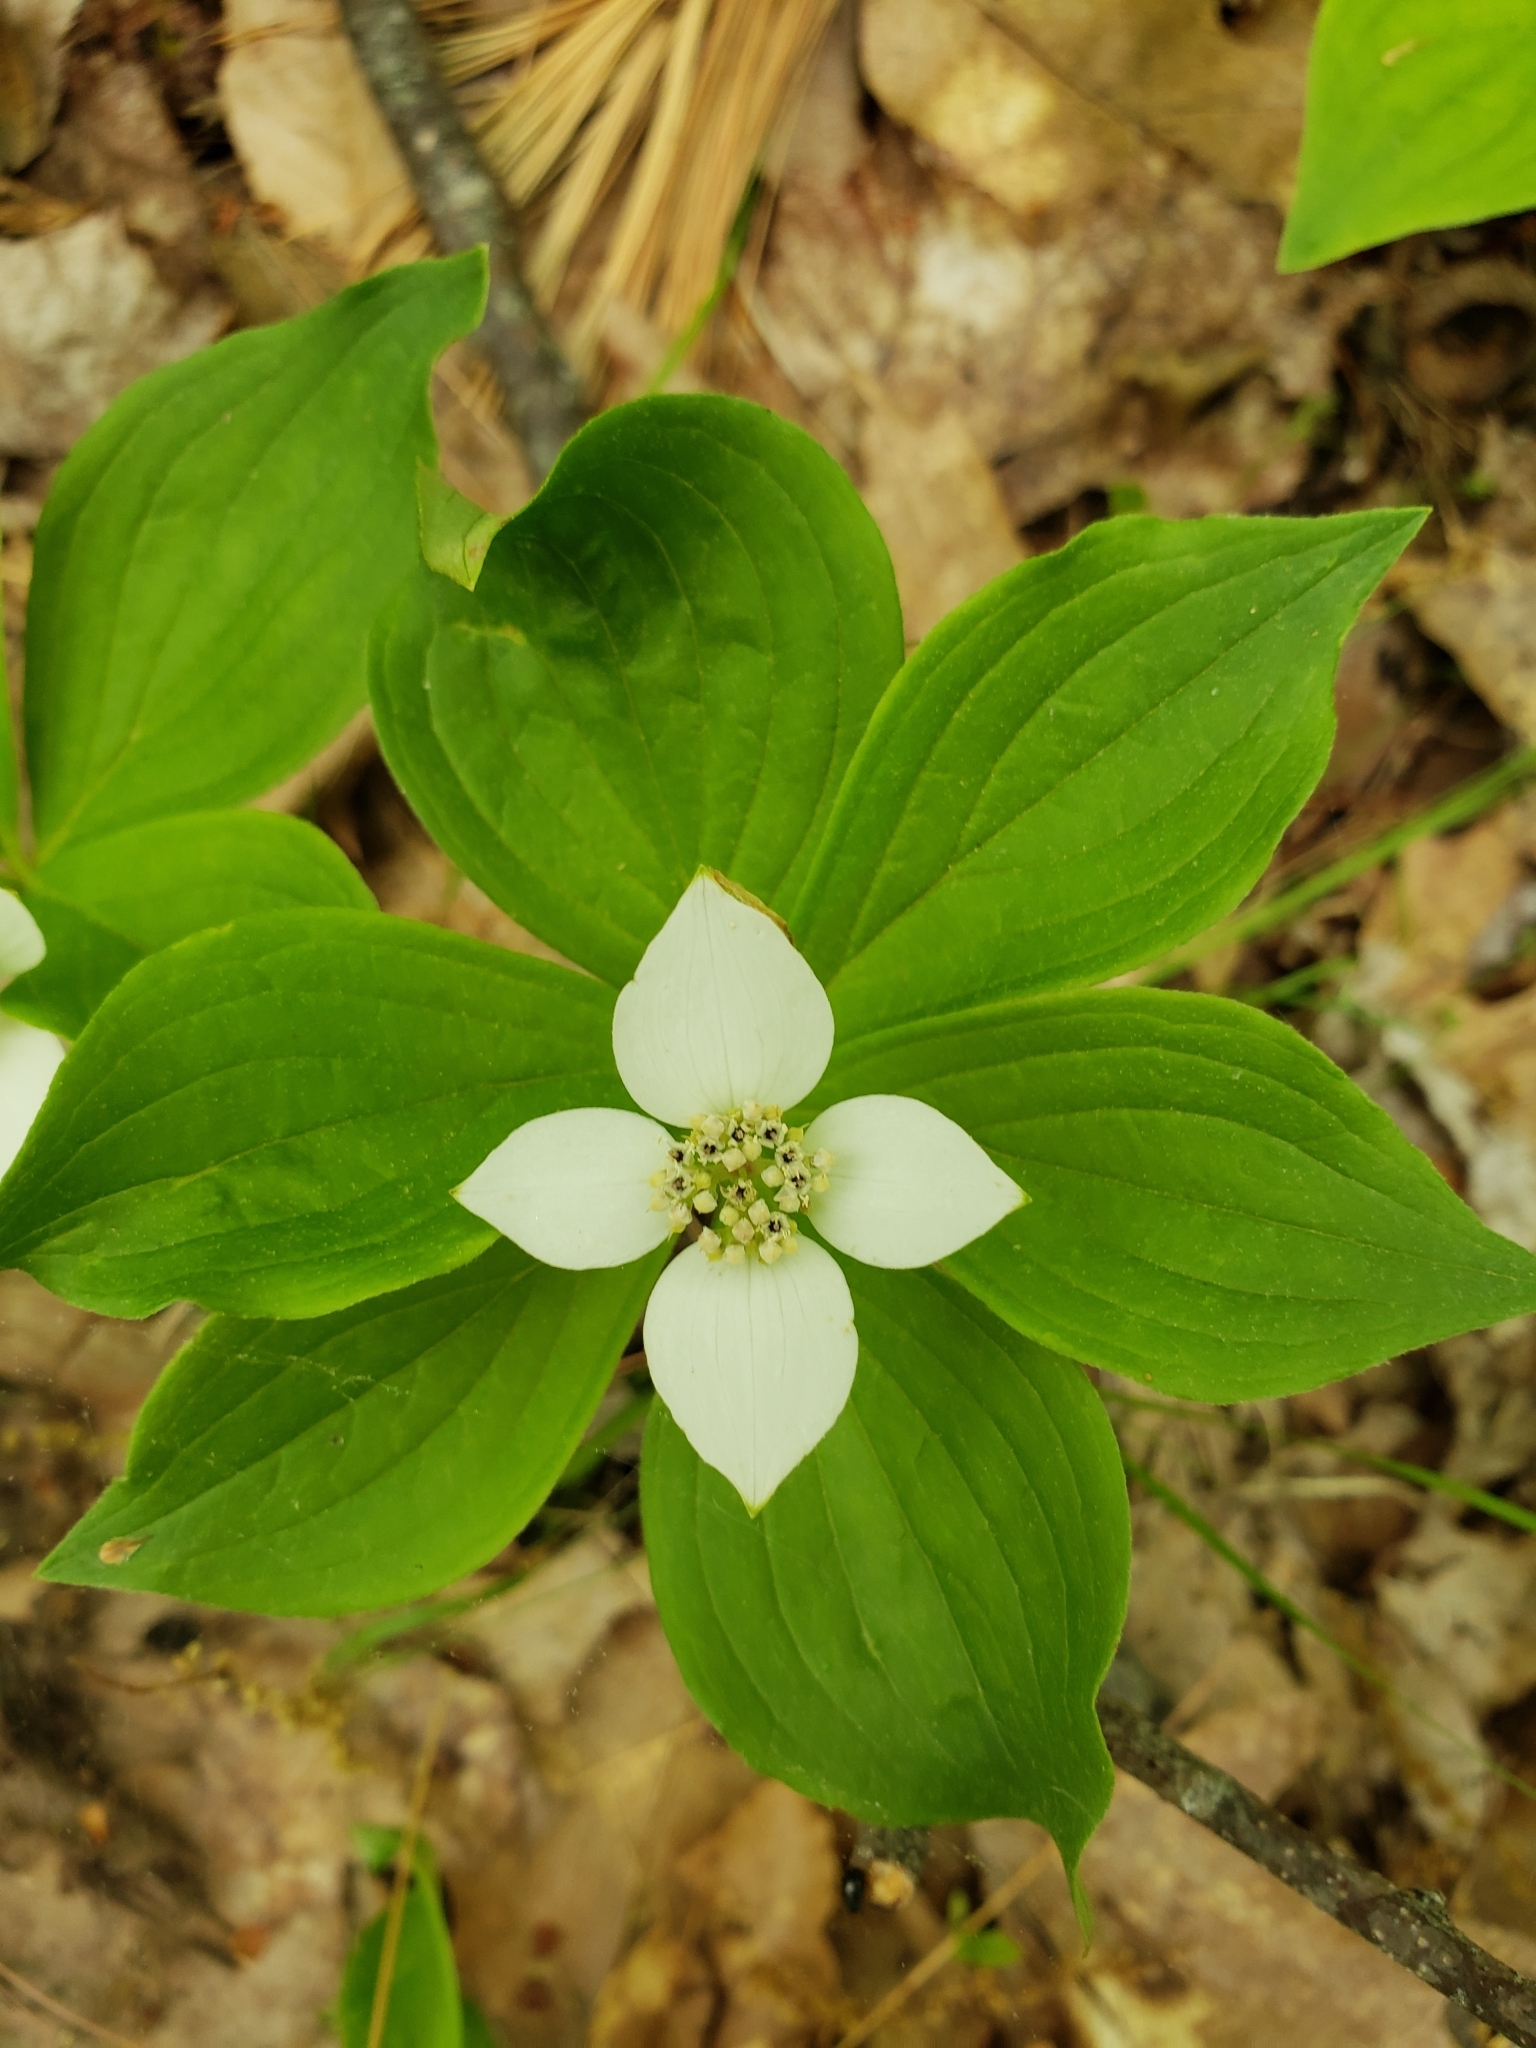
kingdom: Plantae
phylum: Tracheophyta
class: Magnoliopsida
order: Cornales
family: Cornaceae
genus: Cornus
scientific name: Cornus canadensis
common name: Creeping dogwood
